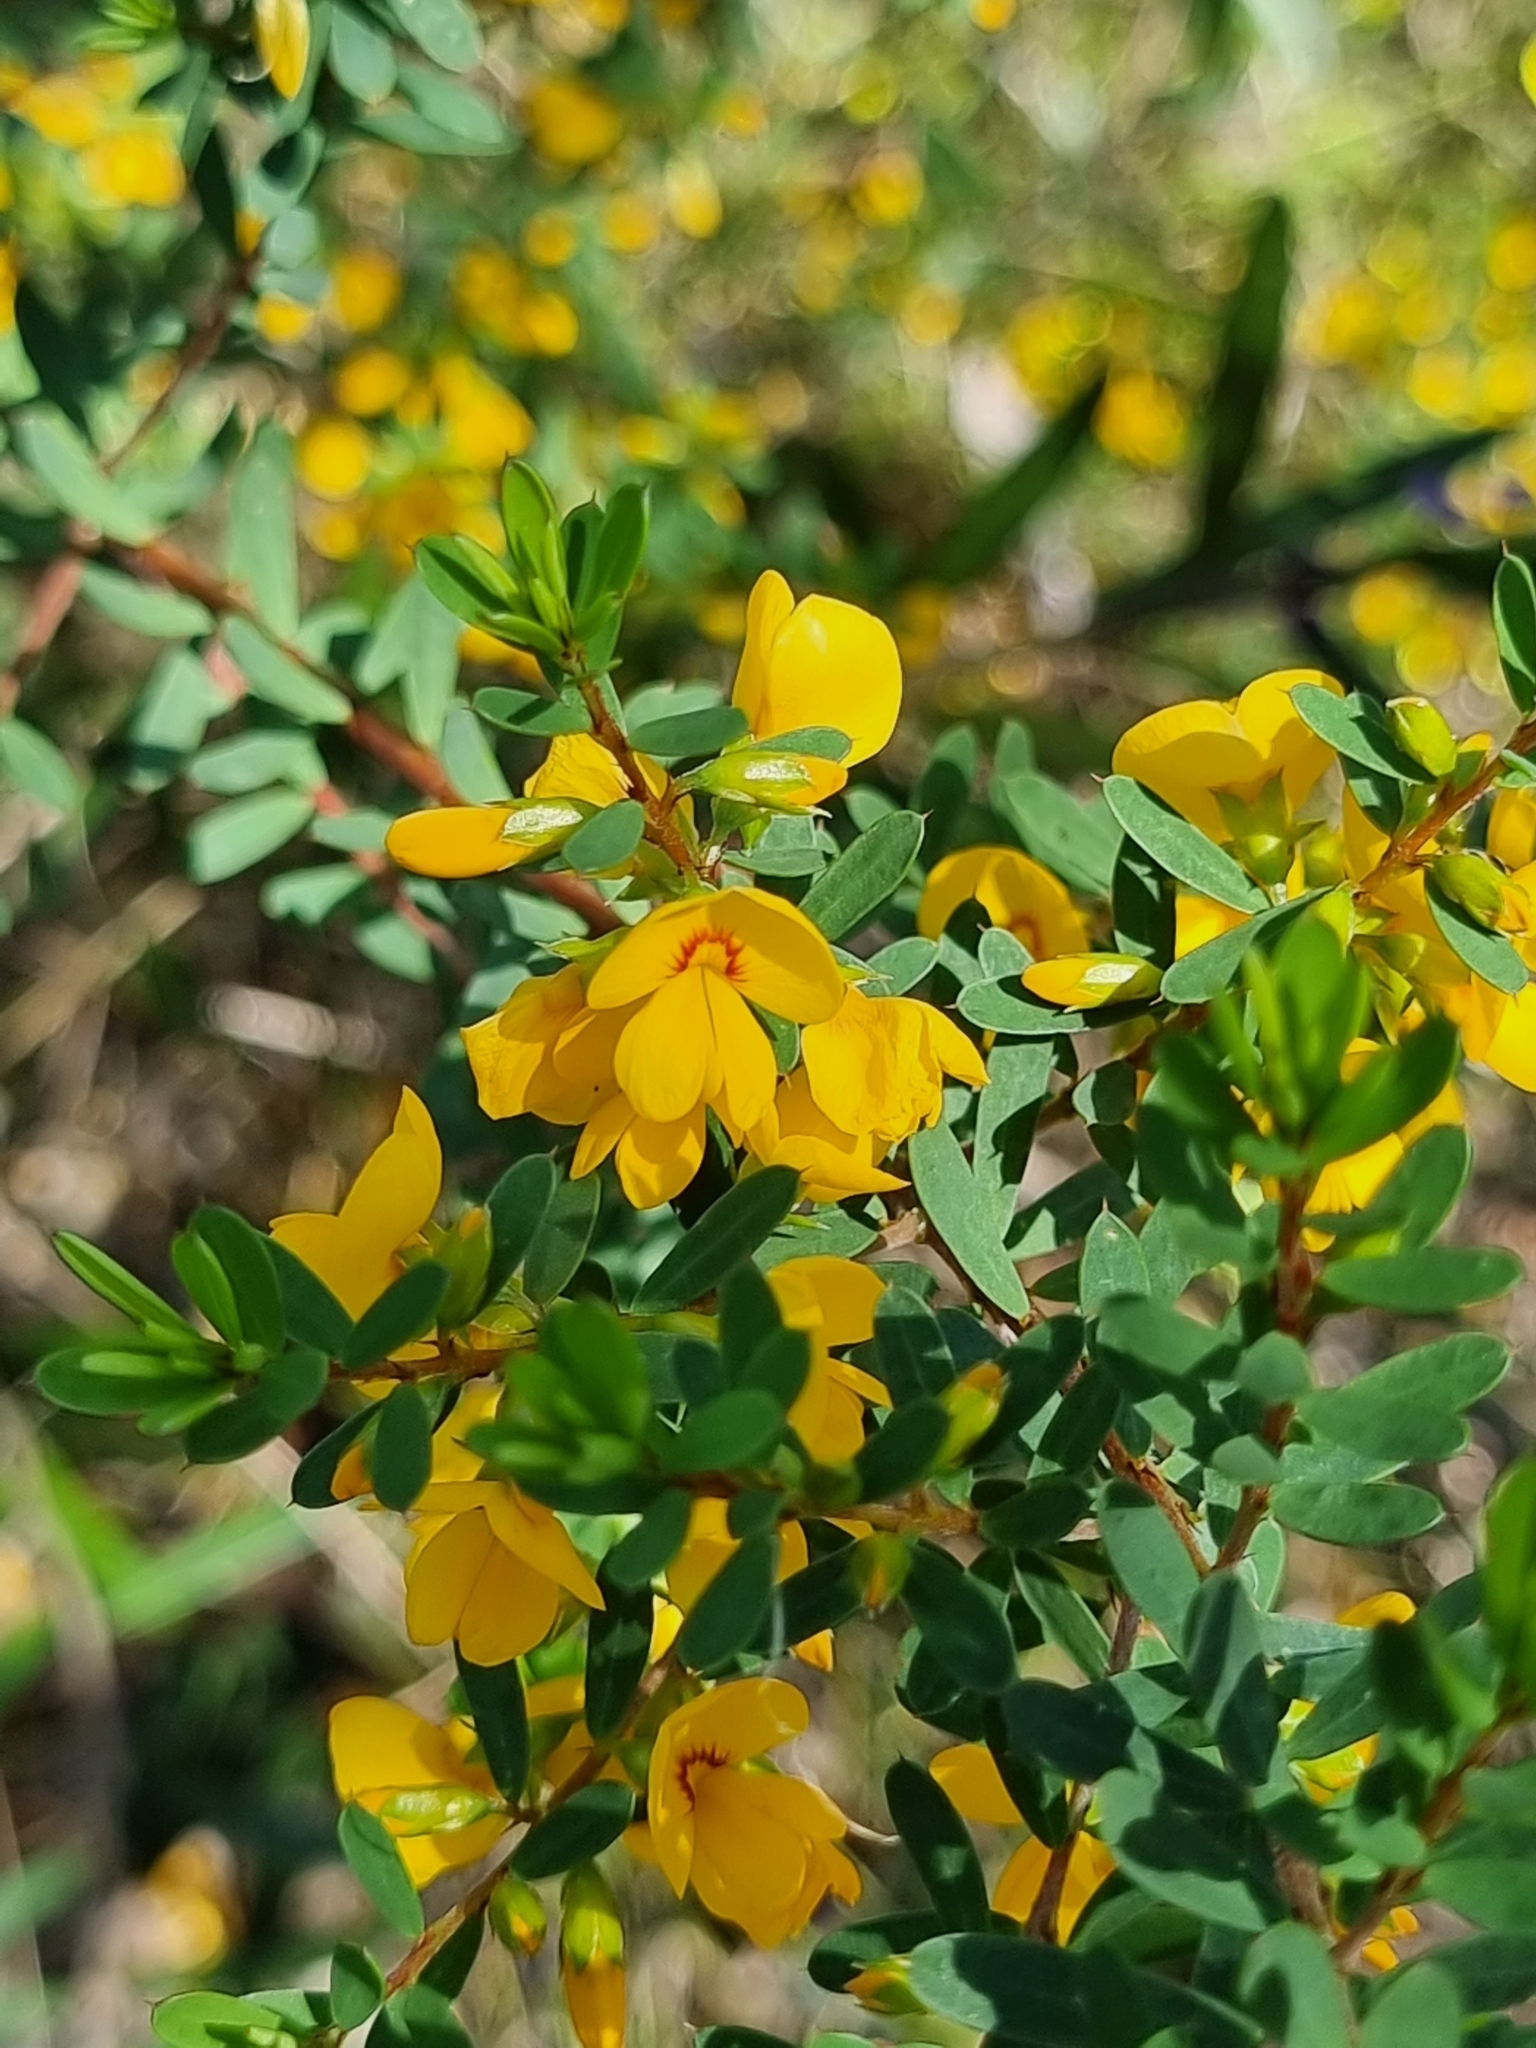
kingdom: Plantae
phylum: Tracheophyta
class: Magnoliopsida
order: Fabales
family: Fabaceae
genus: Pultenaea
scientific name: Pultenaea euchila
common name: Large-flower bush-pea
